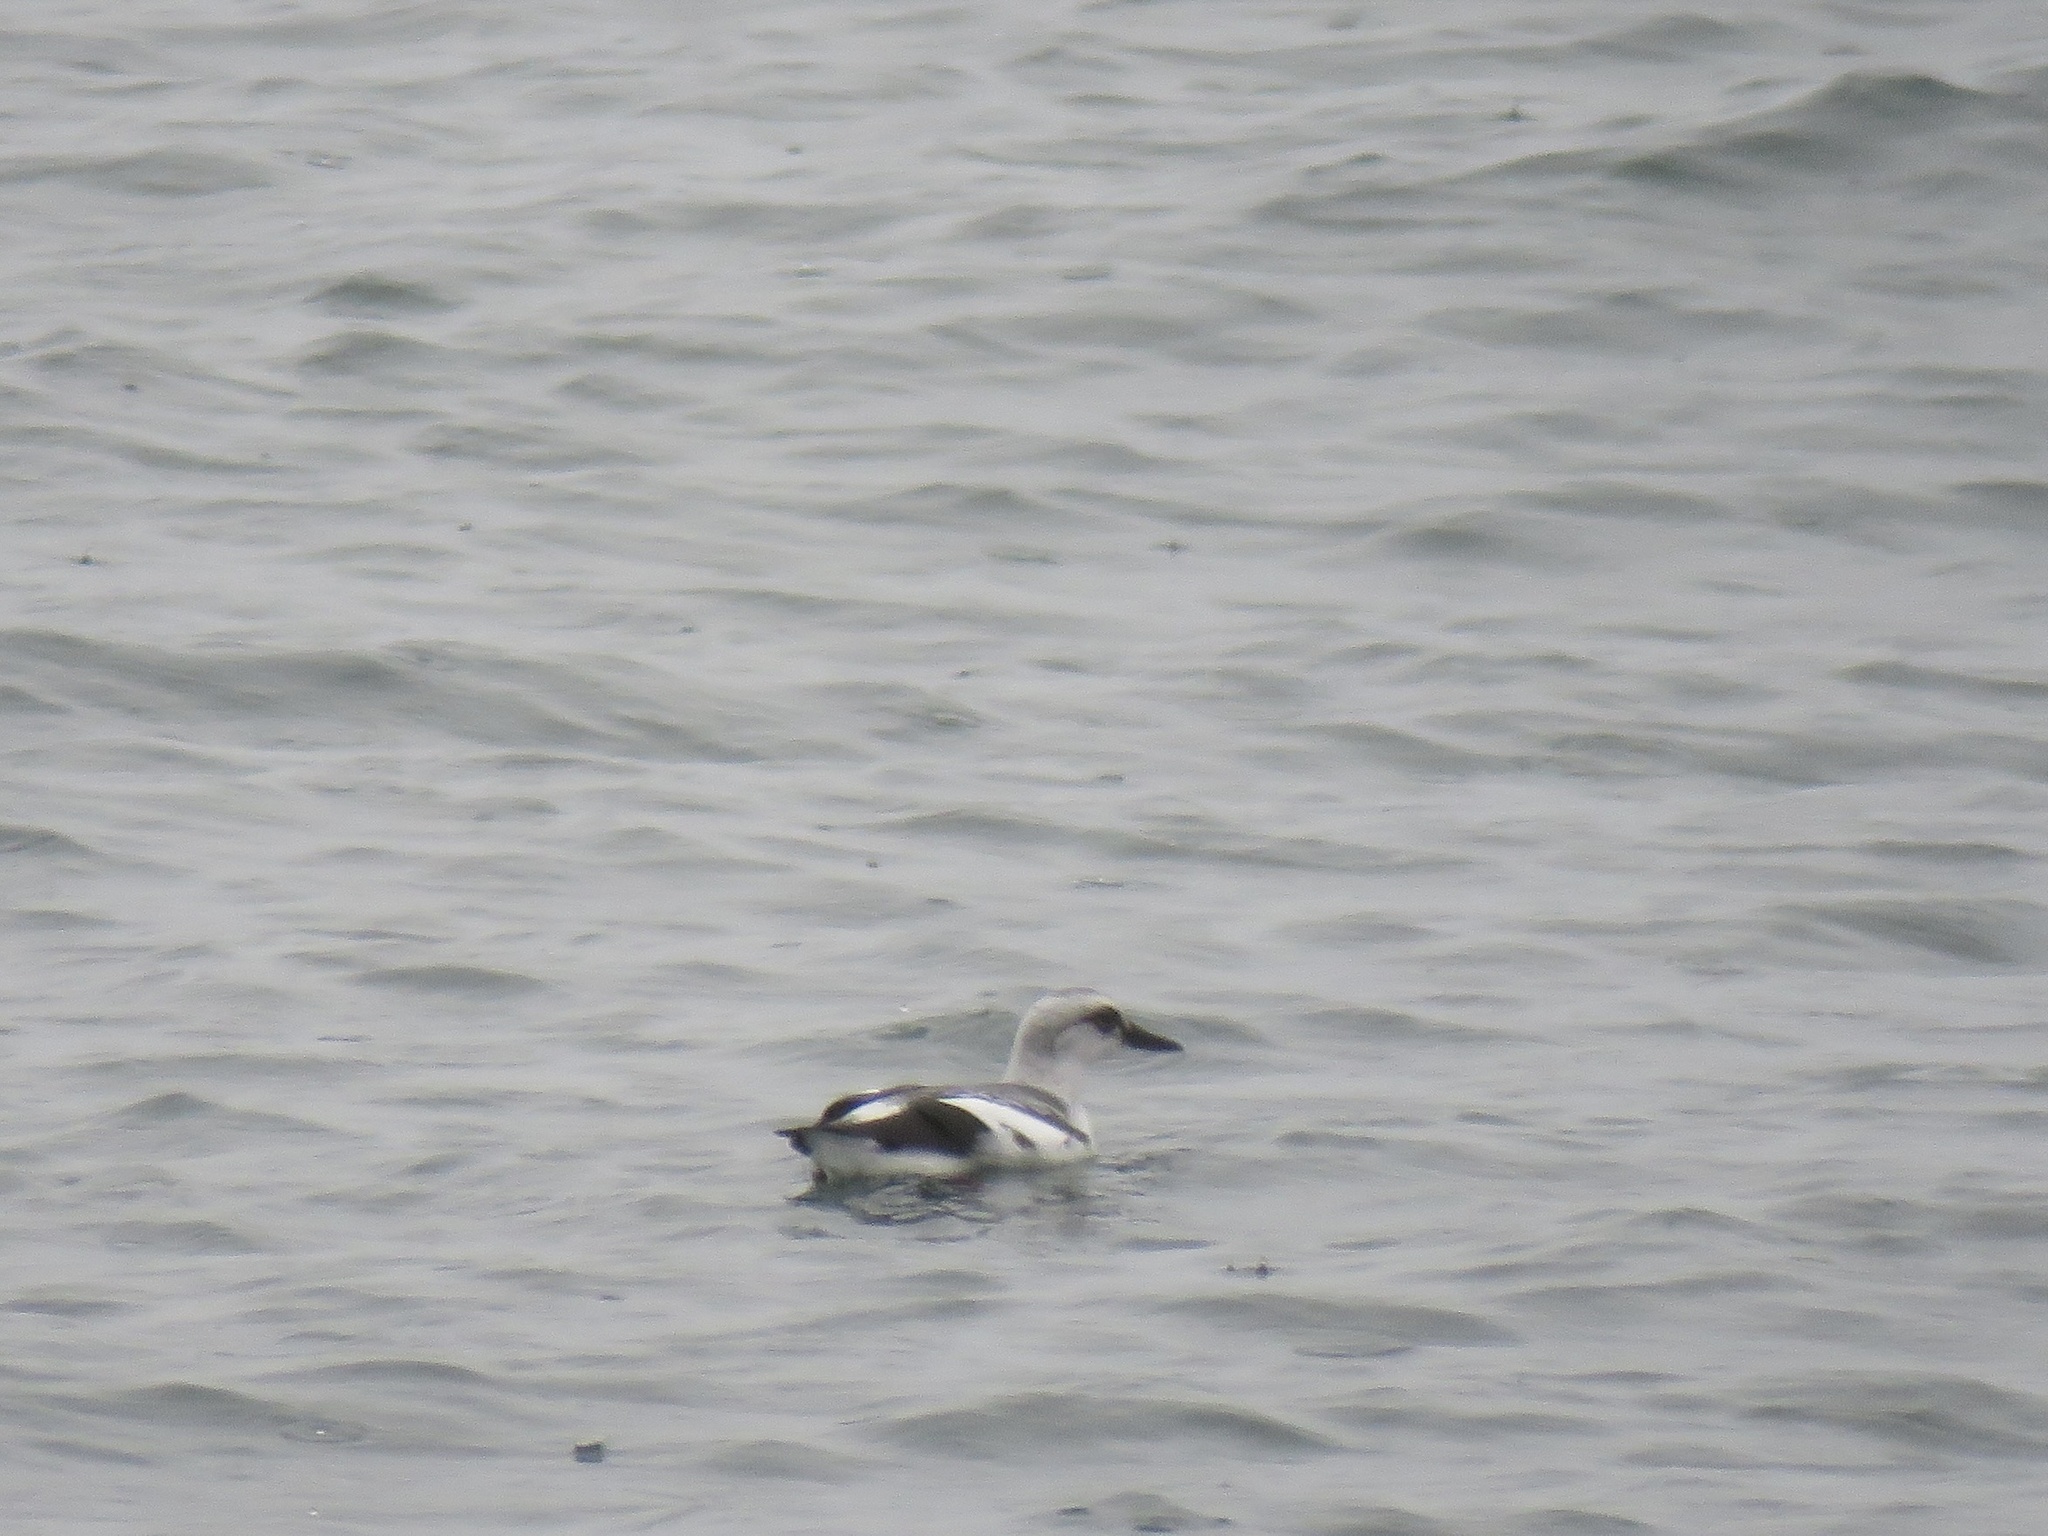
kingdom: Animalia
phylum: Chordata
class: Aves
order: Charadriiformes
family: Alcidae
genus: Cepphus
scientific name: Cepphus columba
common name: Pigeon guillemot
